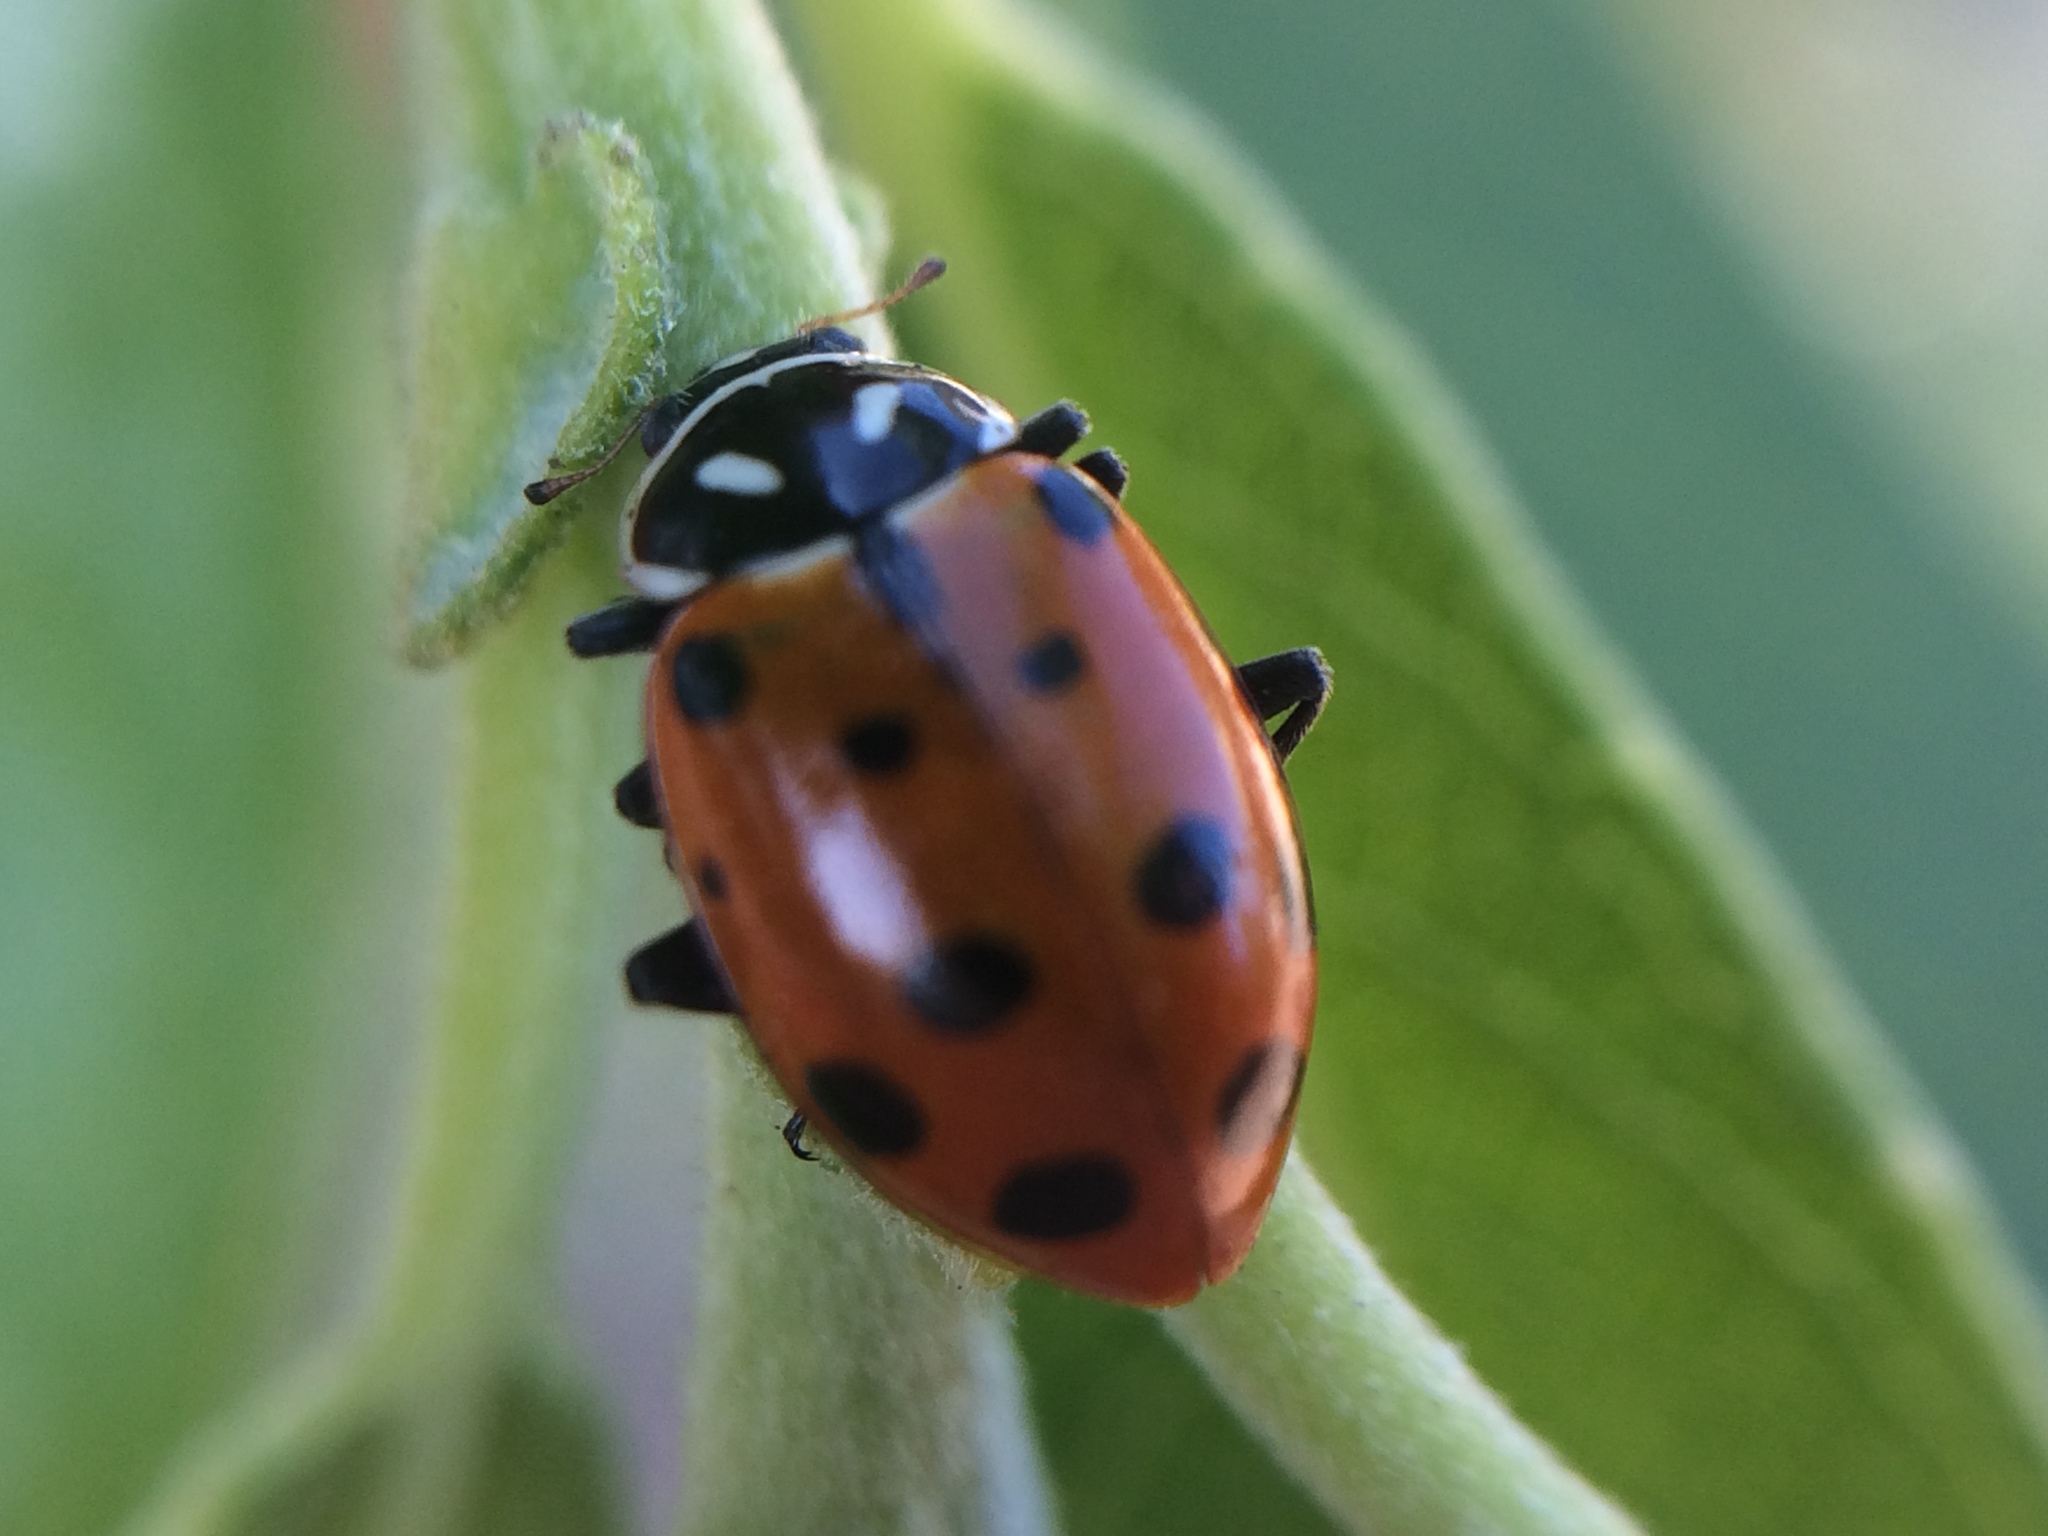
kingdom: Animalia
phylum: Arthropoda
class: Insecta
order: Coleoptera
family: Coccinellidae
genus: Hippodamia
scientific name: Hippodamia convergens
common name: Convergent lady beetle
